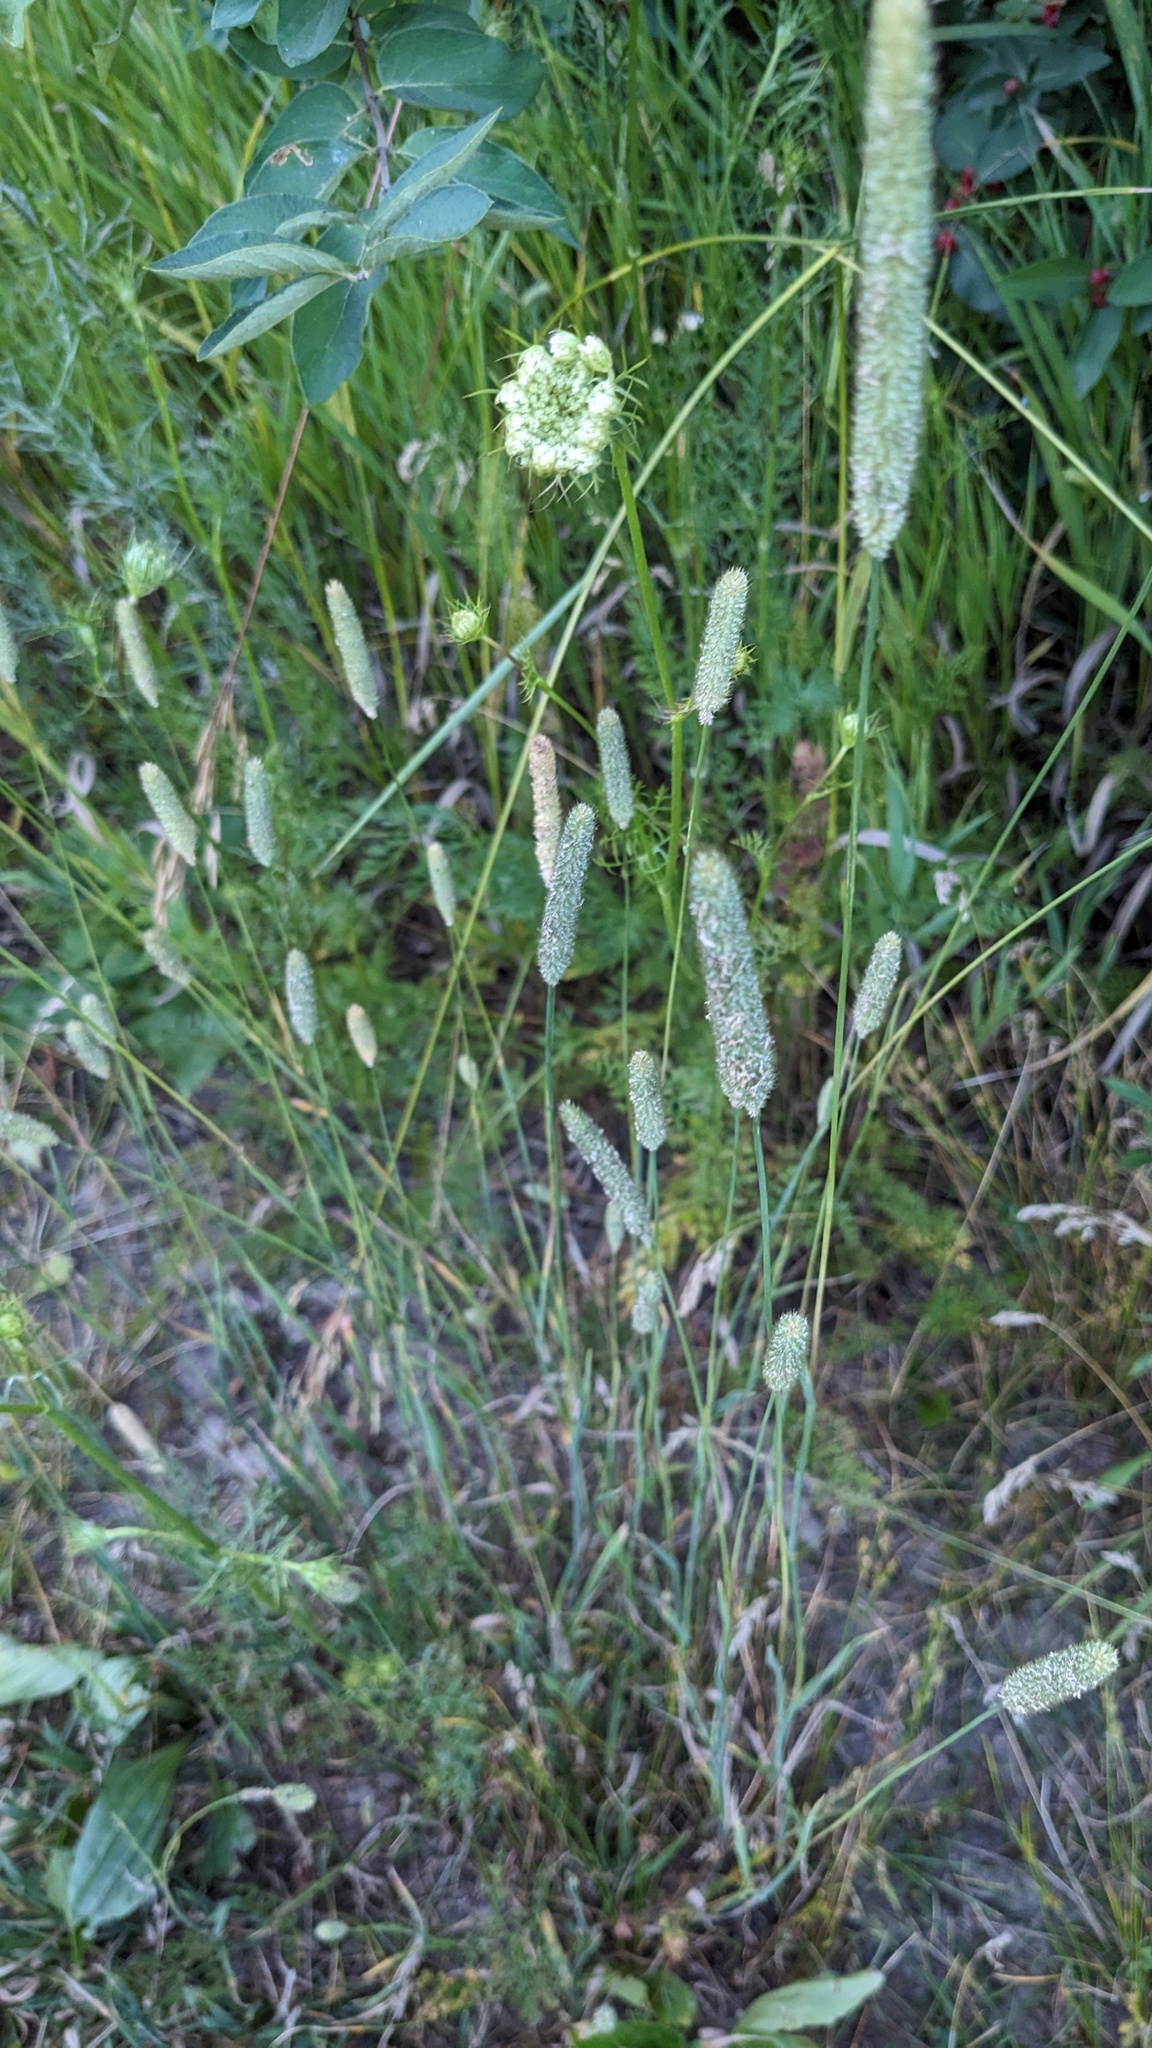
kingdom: Plantae
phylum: Tracheophyta
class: Liliopsida
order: Poales
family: Poaceae
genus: Phleum
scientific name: Phleum pratense
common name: Timothy grass
